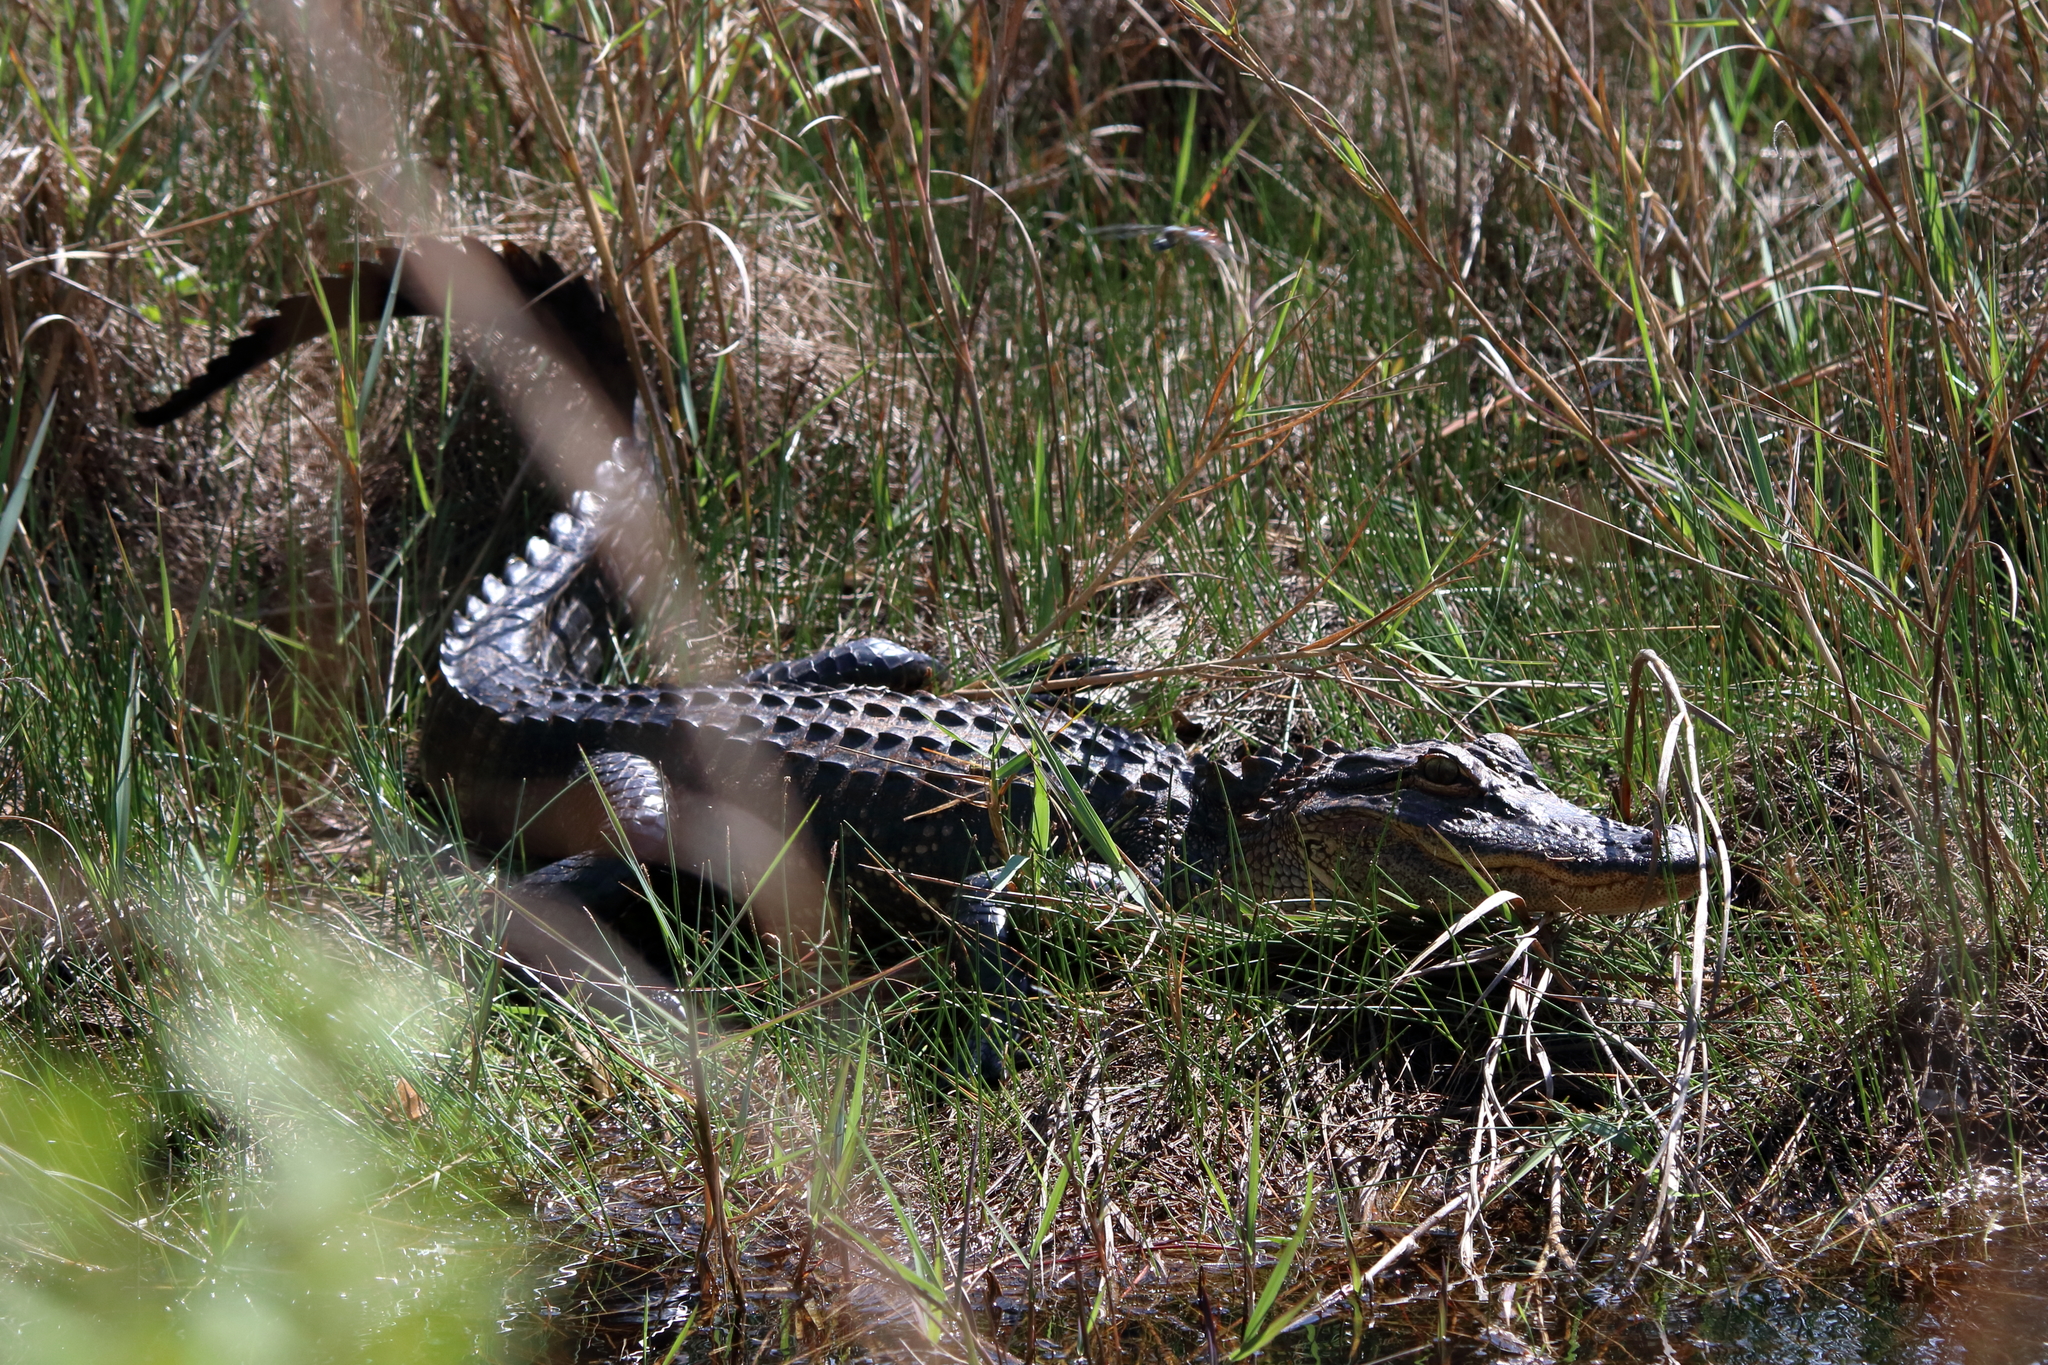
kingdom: Animalia
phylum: Chordata
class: Crocodylia
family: Alligatoridae
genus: Alligator
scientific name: Alligator mississippiensis
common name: American alligator
